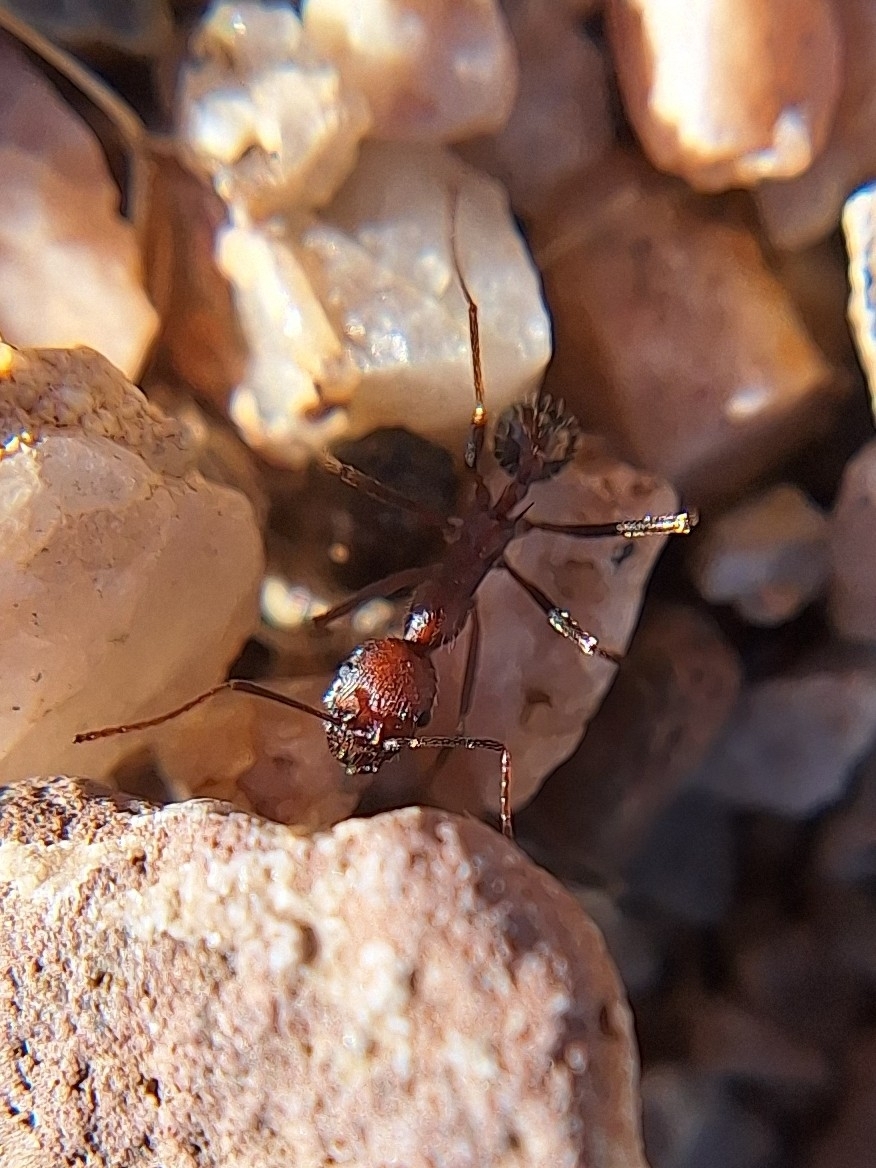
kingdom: Animalia
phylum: Arthropoda
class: Insecta
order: Hymenoptera
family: Formicidae
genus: Novomessor
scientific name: Novomessor albisetosa
